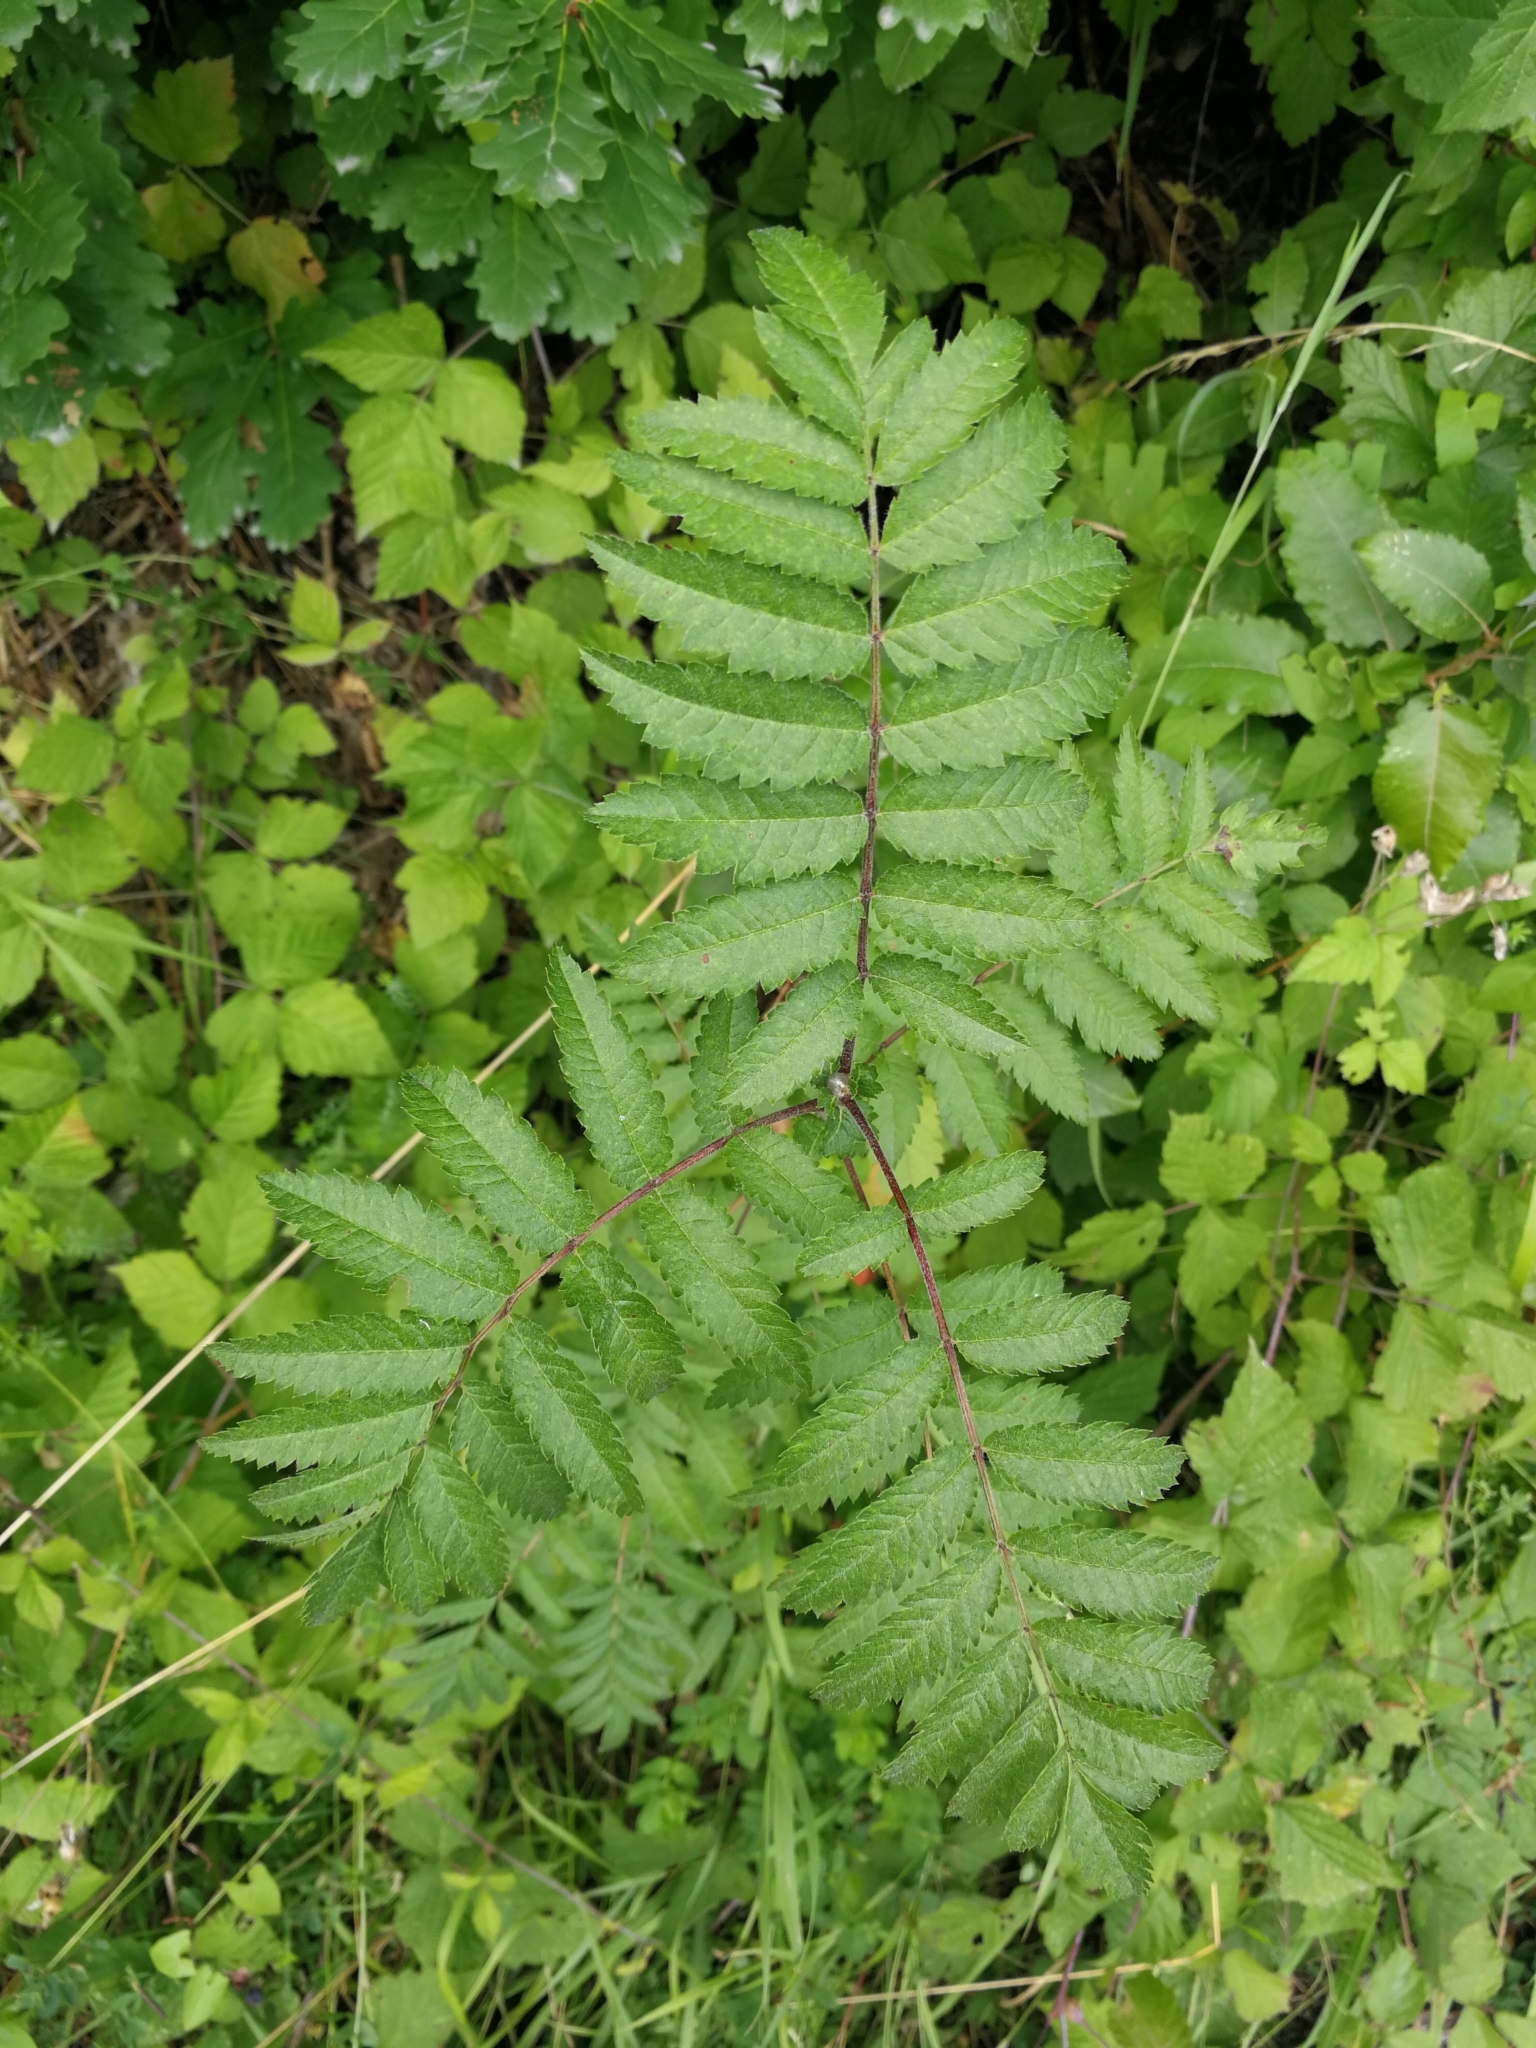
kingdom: Plantae
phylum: Tracheophyta
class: Magnoliopsida
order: Rosales
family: Rosaceae
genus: Sorbus
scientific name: Sorbus aucuparia
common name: Rowan
